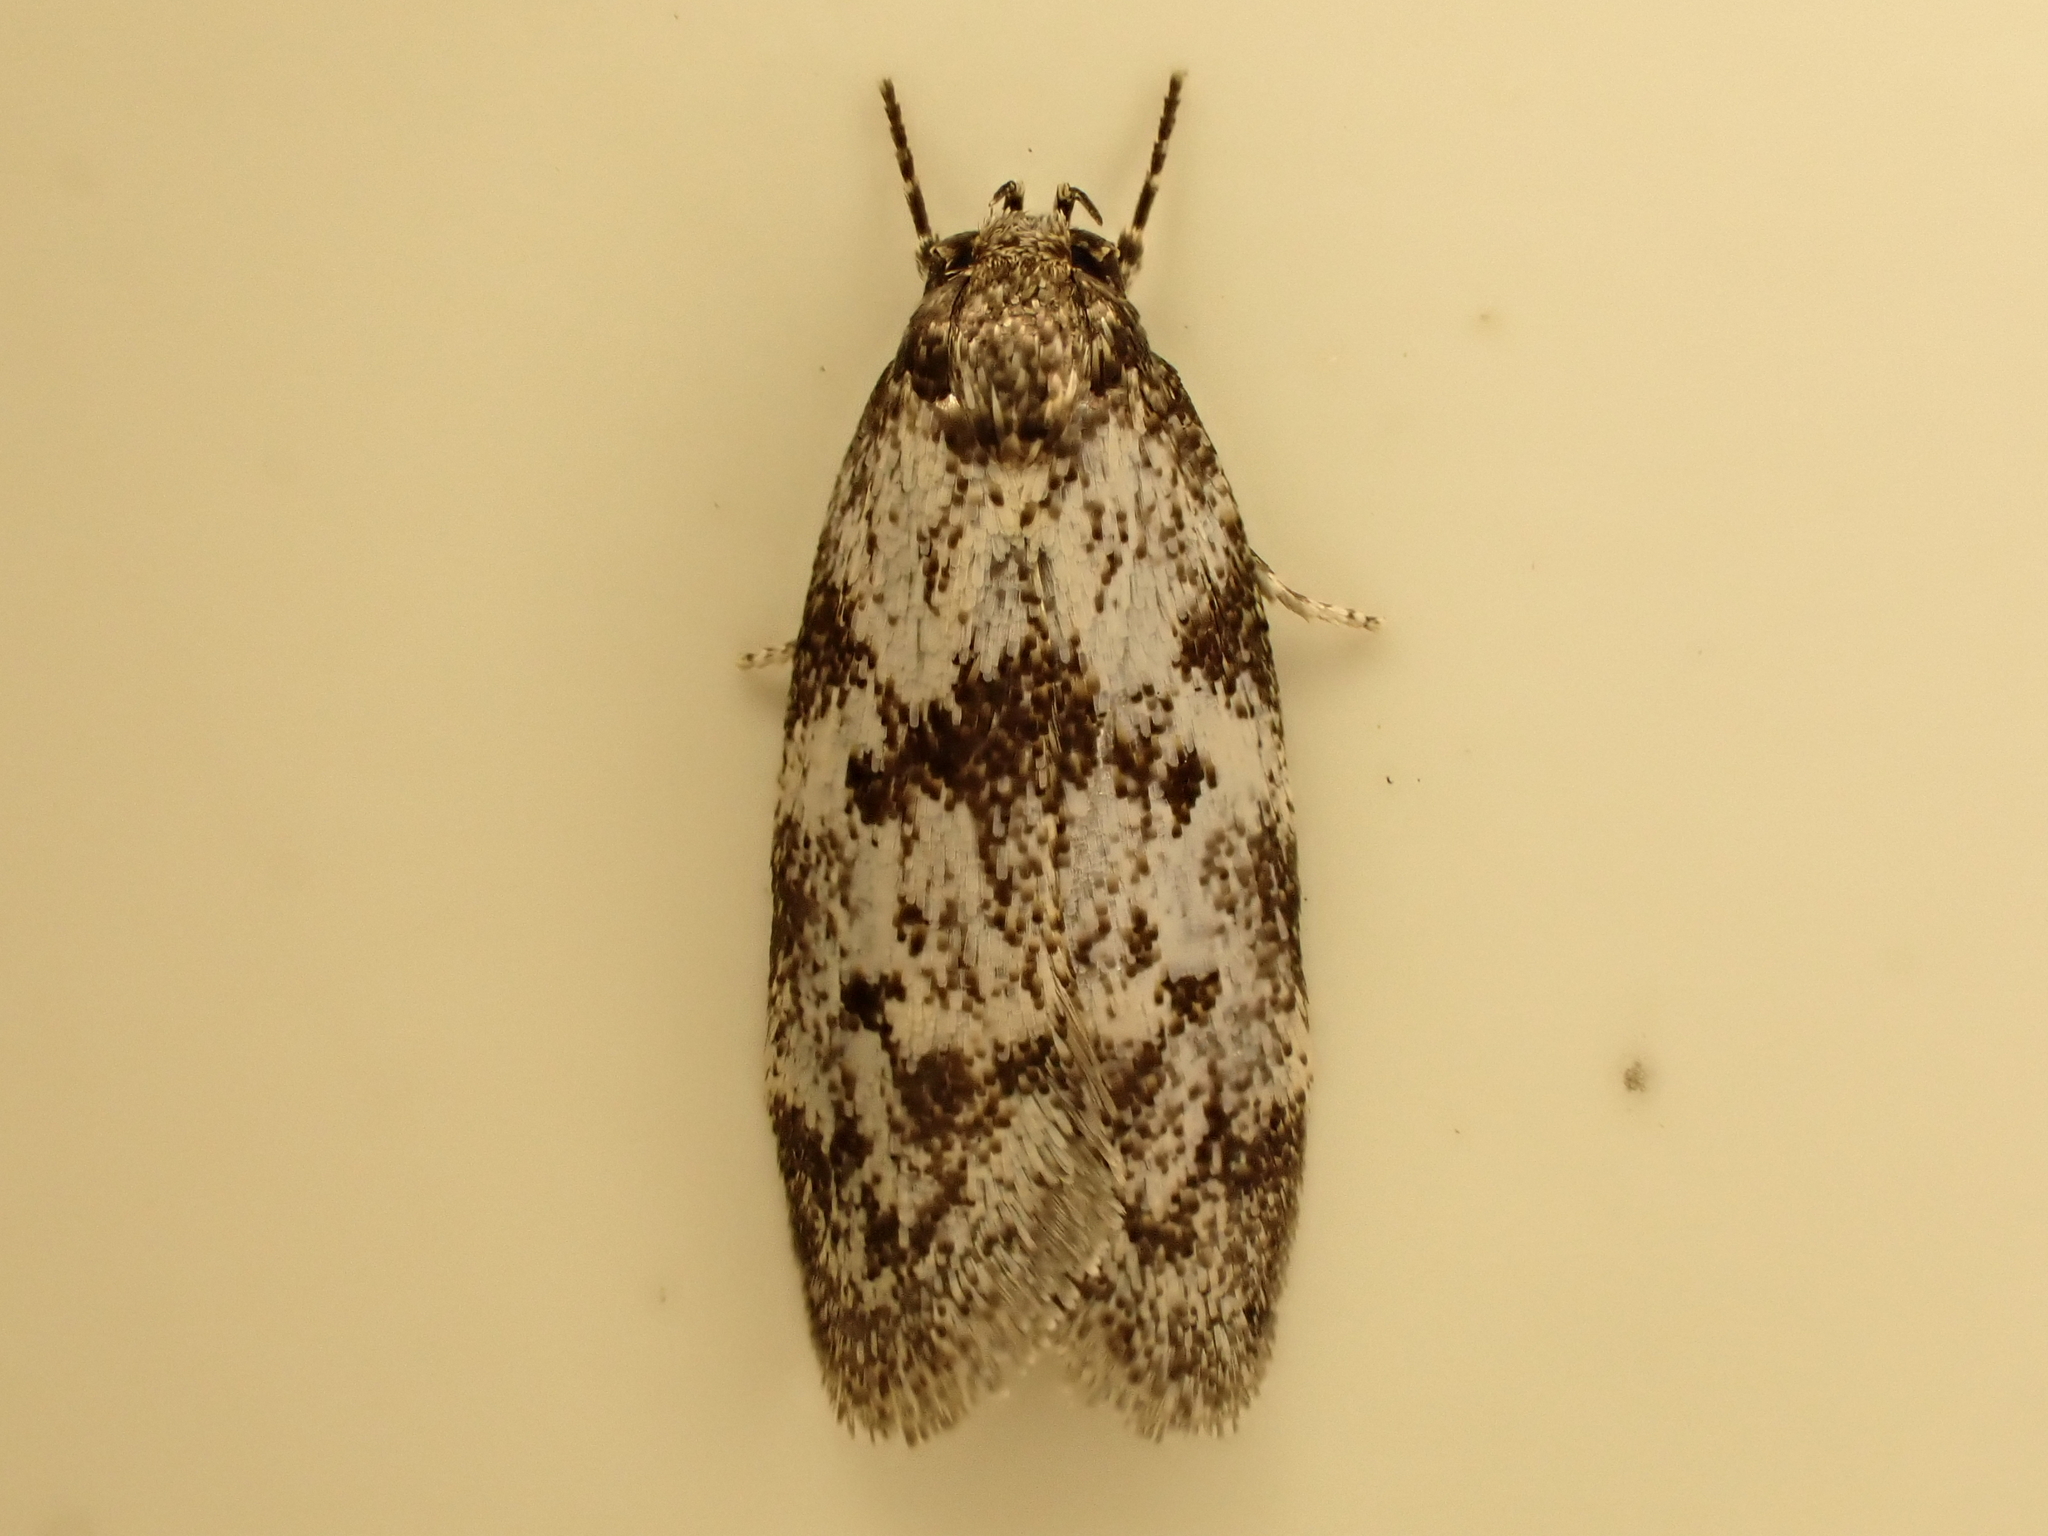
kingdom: Animalia
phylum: Arthropoda
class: Insecta
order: Lepidoptera
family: Oecophoridae
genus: Tingena
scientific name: Tingena clarkei
